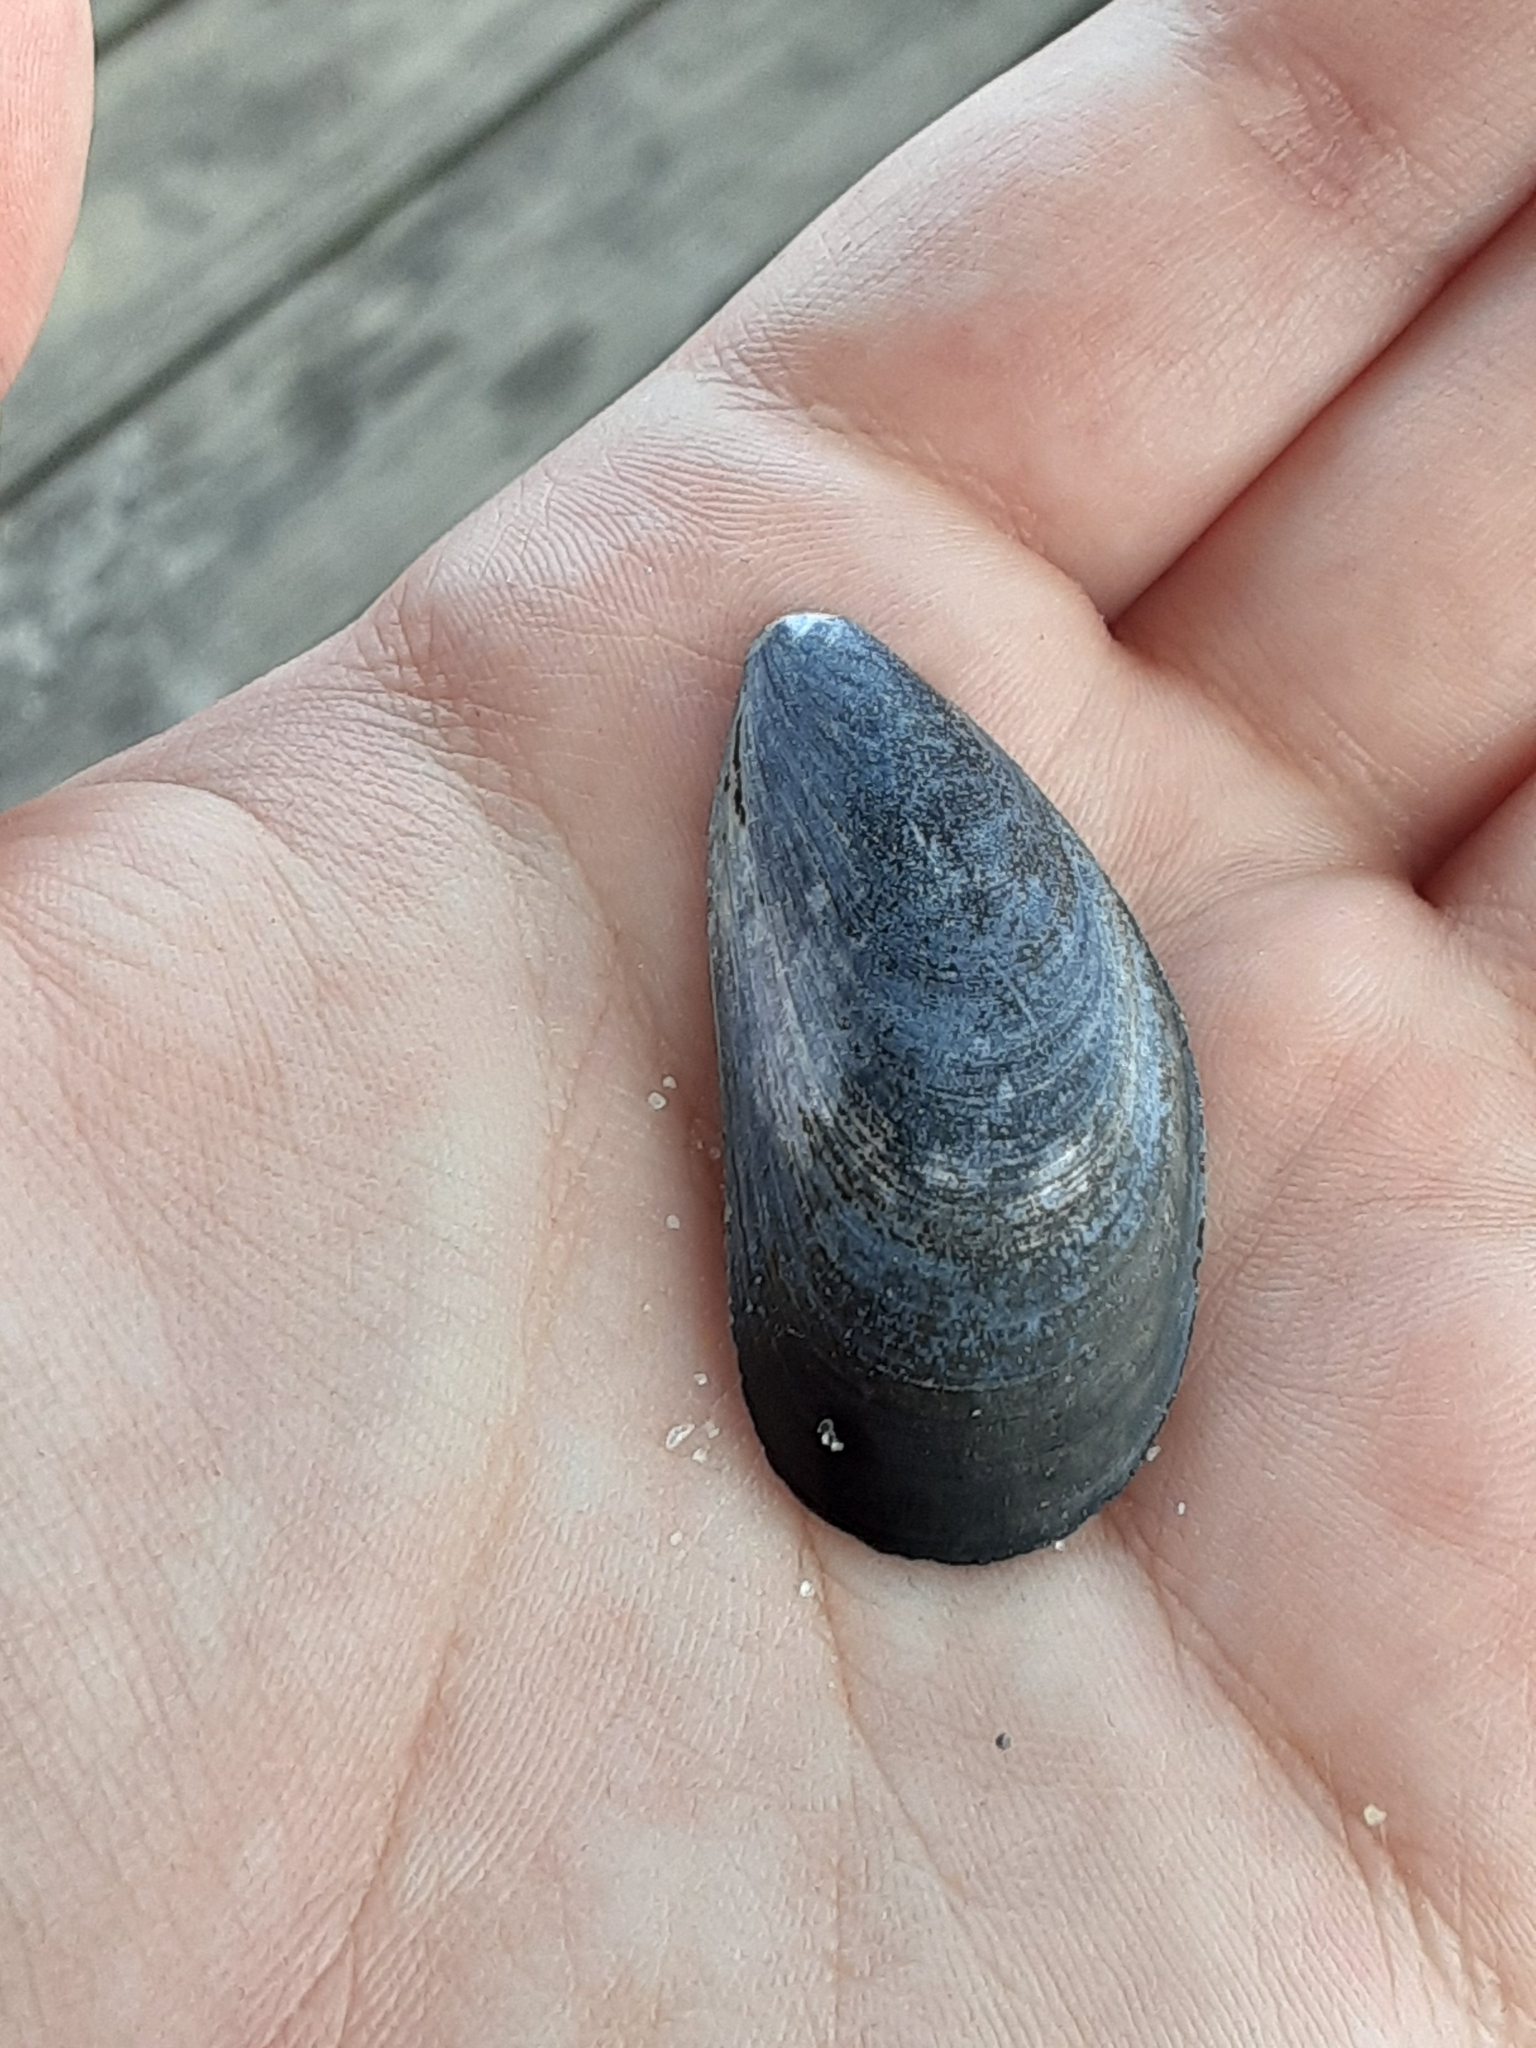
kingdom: Animalia
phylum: Mollusca
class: Bivalvia
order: Mytilida
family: Mytilidae
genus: Mytilus
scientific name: Mytilus edulis
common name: Blue mussel
